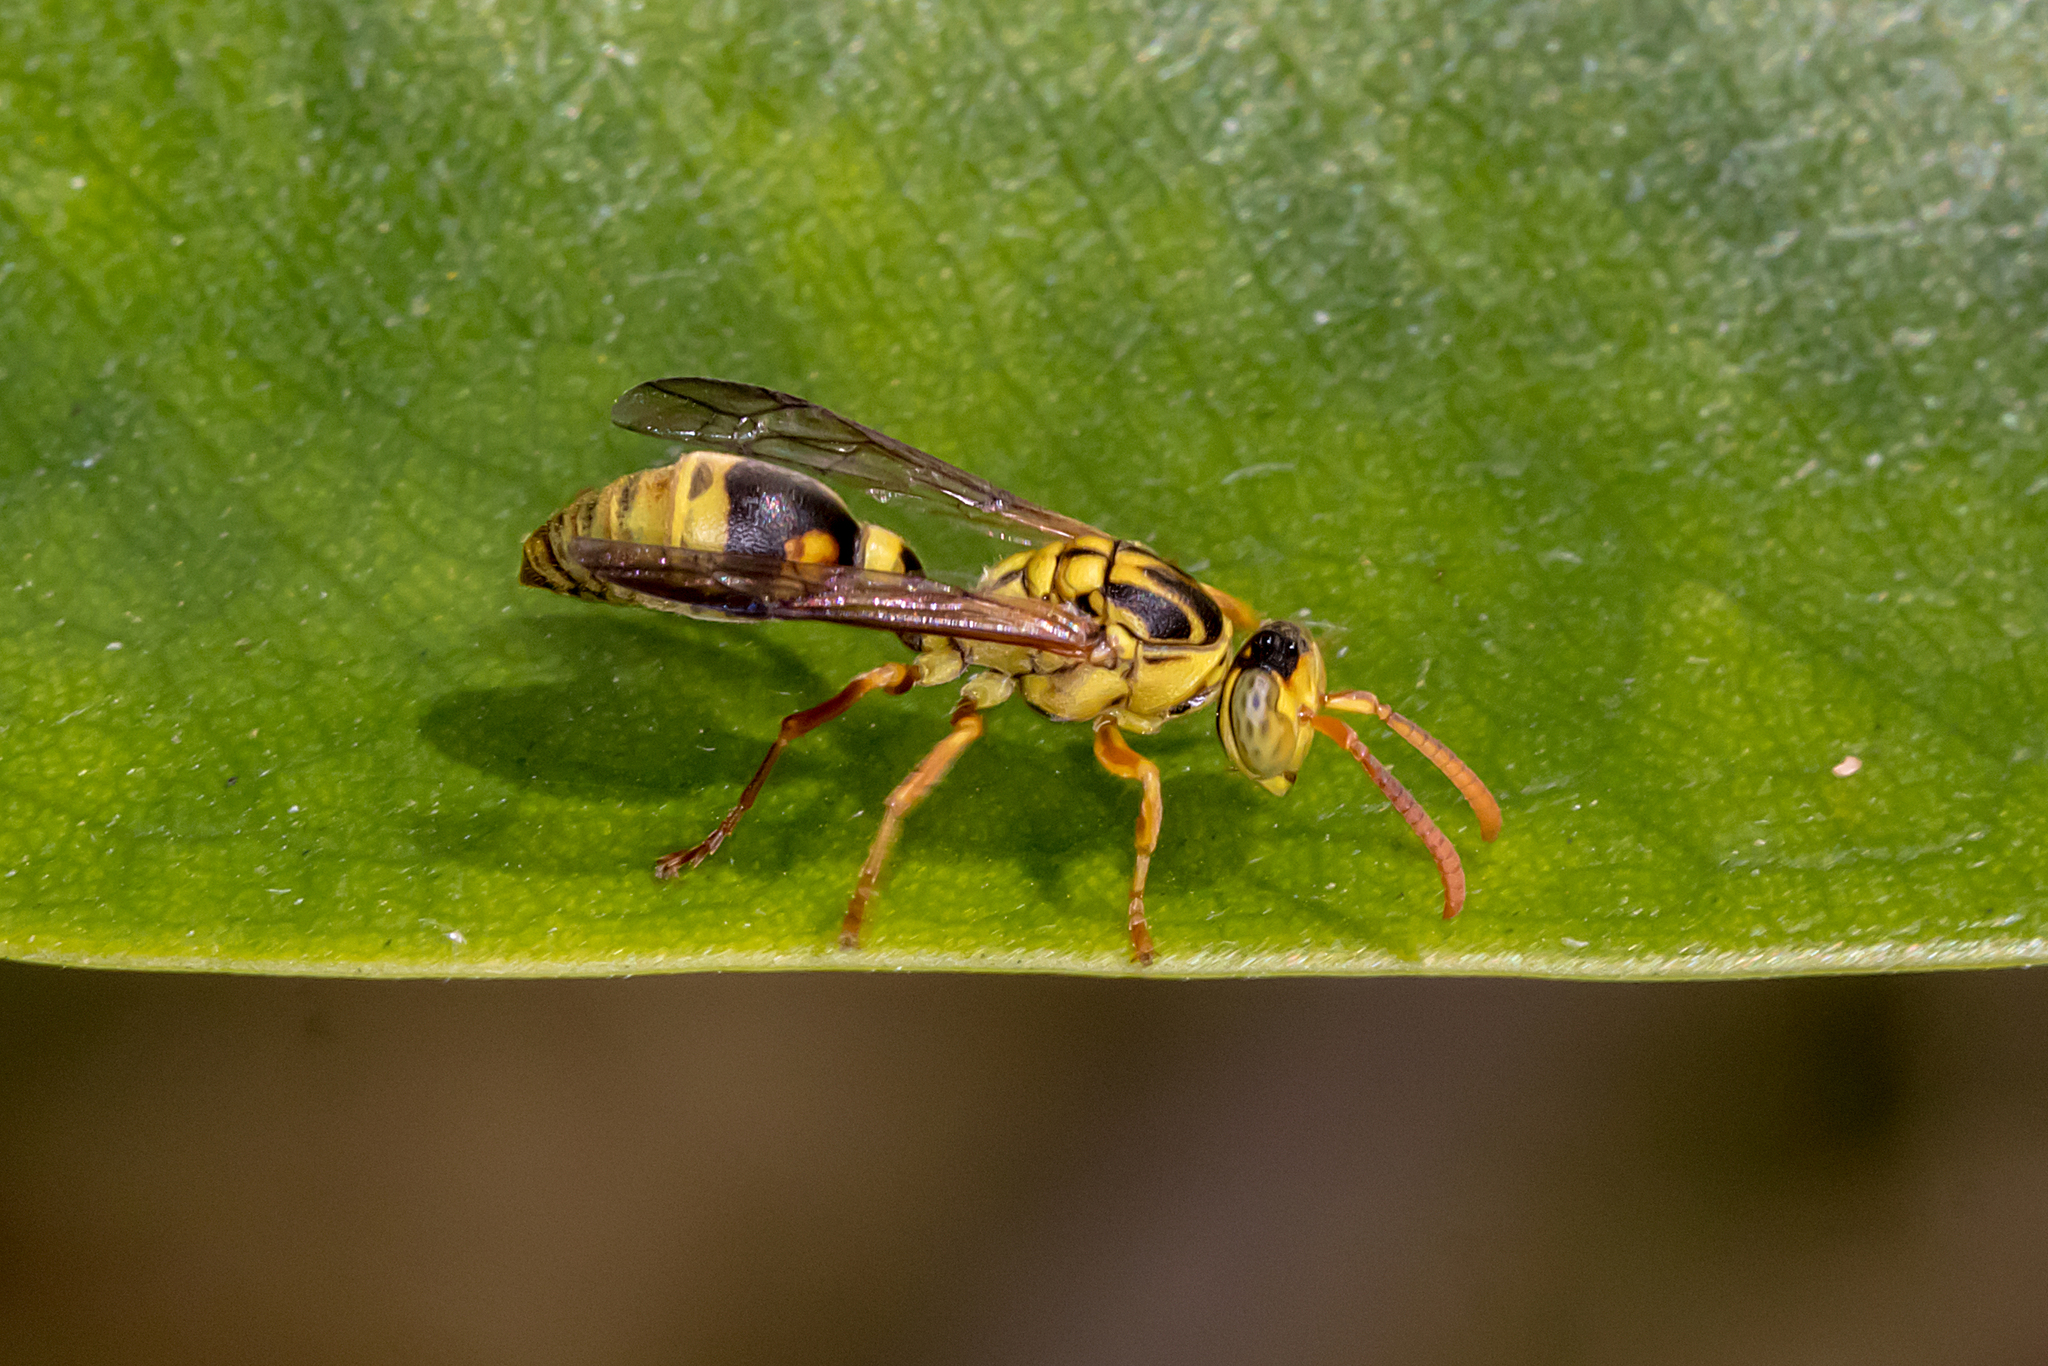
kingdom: Animalia
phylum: Arthropoda
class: Insecta
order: Hymenoptera
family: Vespidae
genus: Ropalidia
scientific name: Ropalidia romandi
